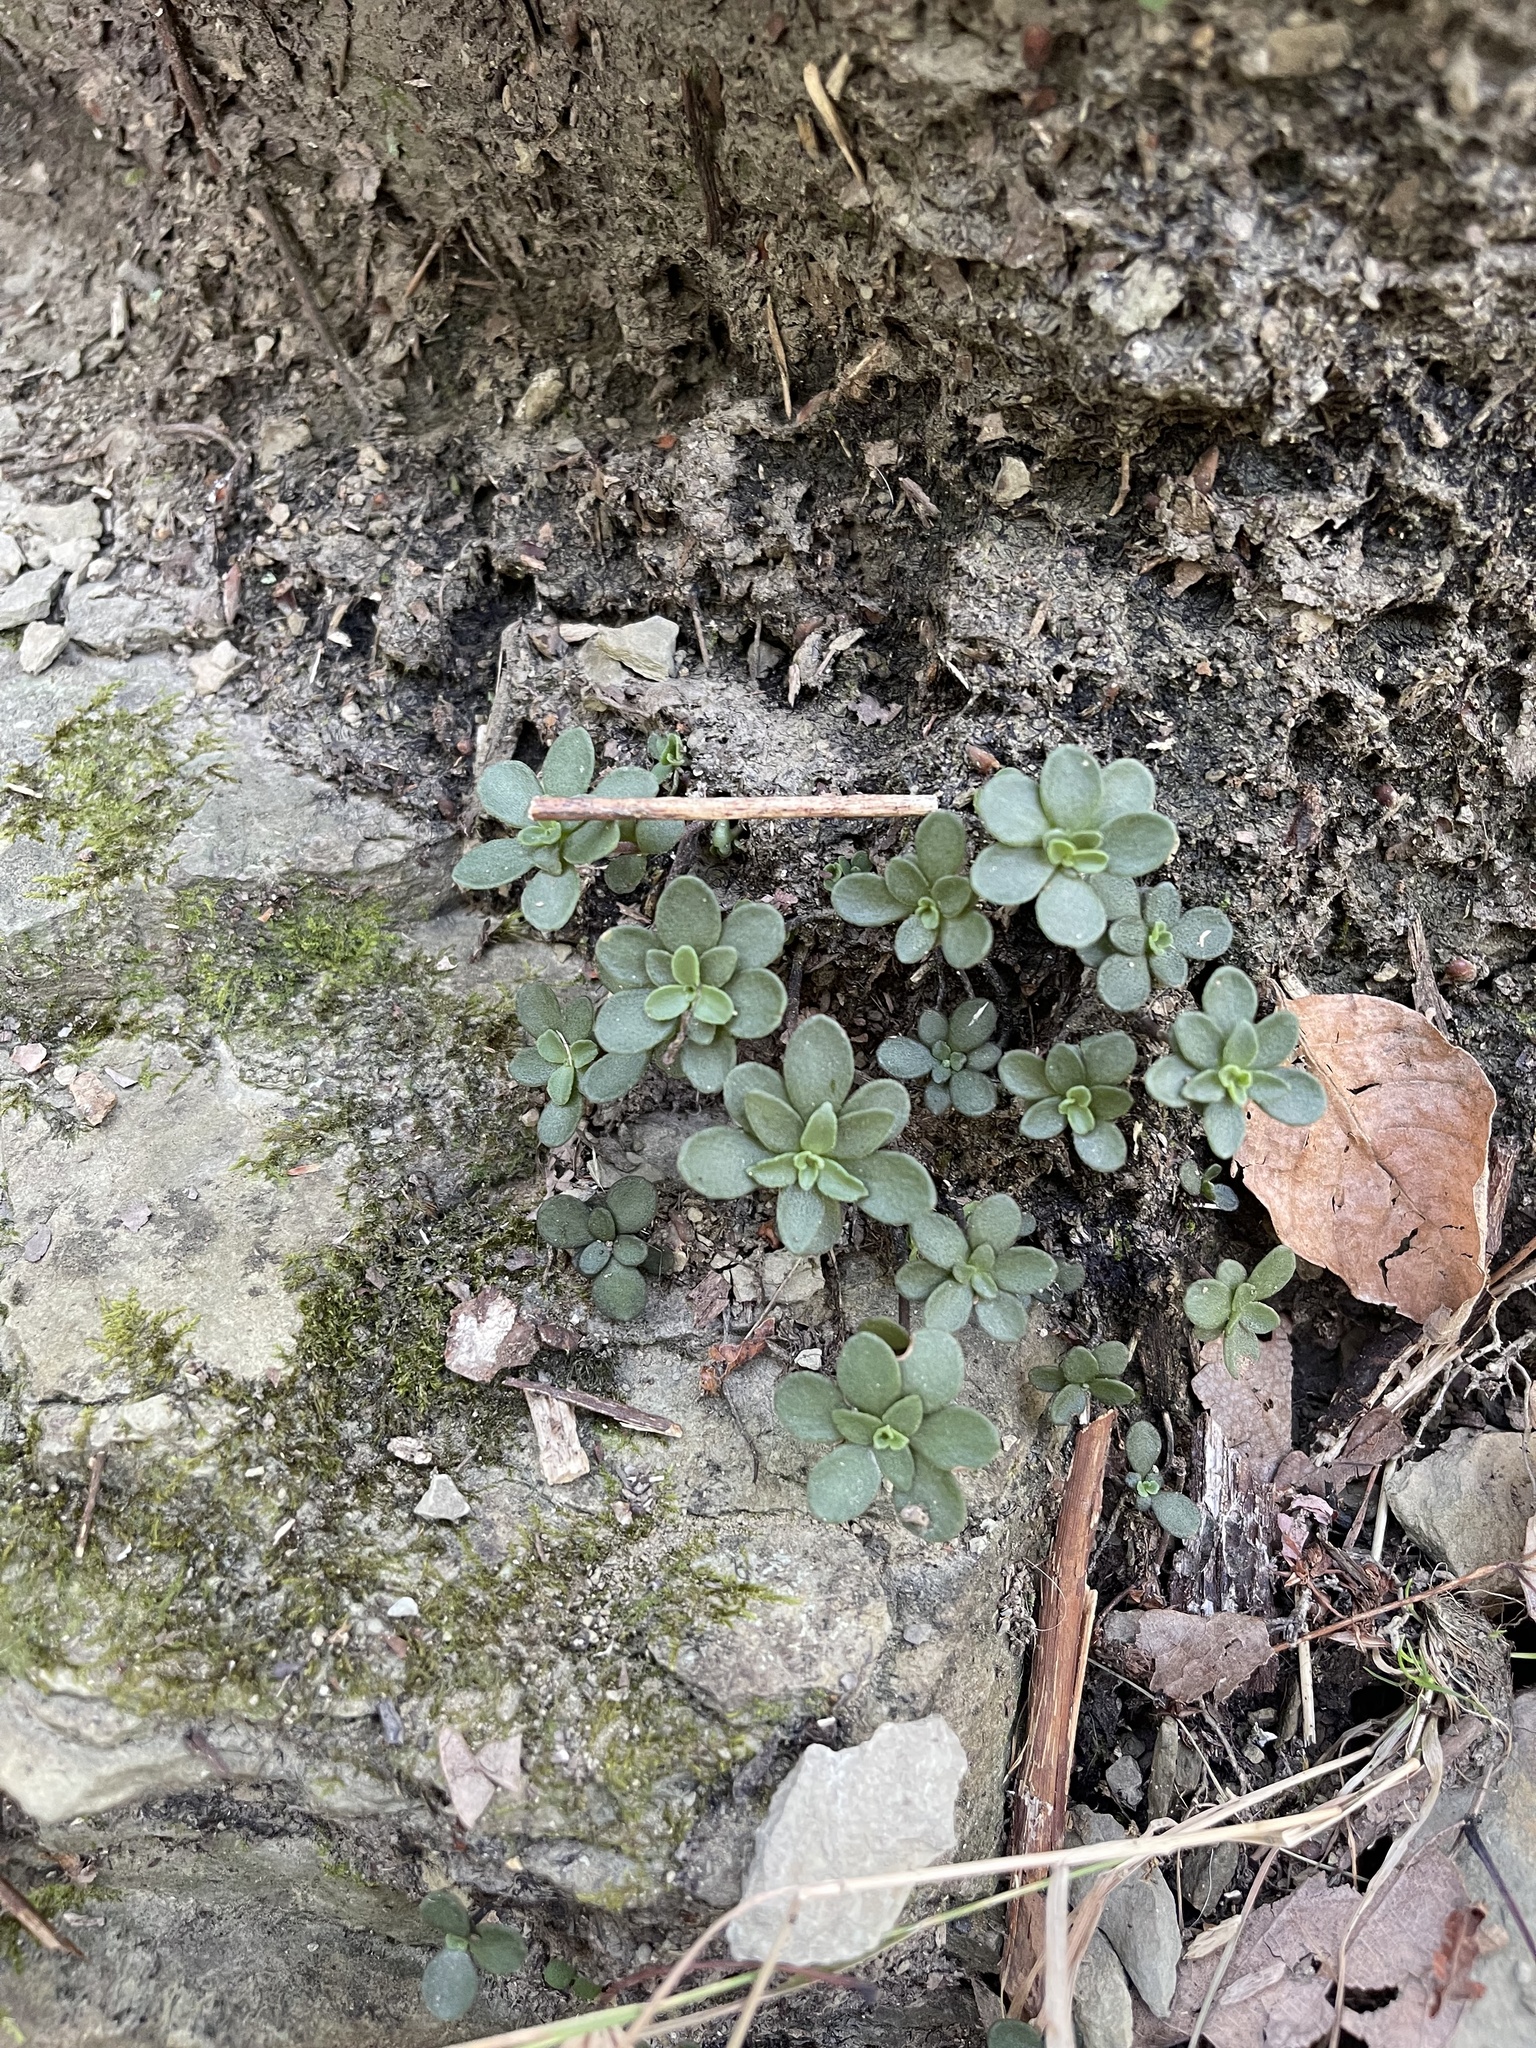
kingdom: Plantae
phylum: Tracheophyta
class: Magnoliopsida
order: Saxifragales
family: Crassulaceae
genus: Sedum
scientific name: Sedum ternatum
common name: Wild stonecrop
